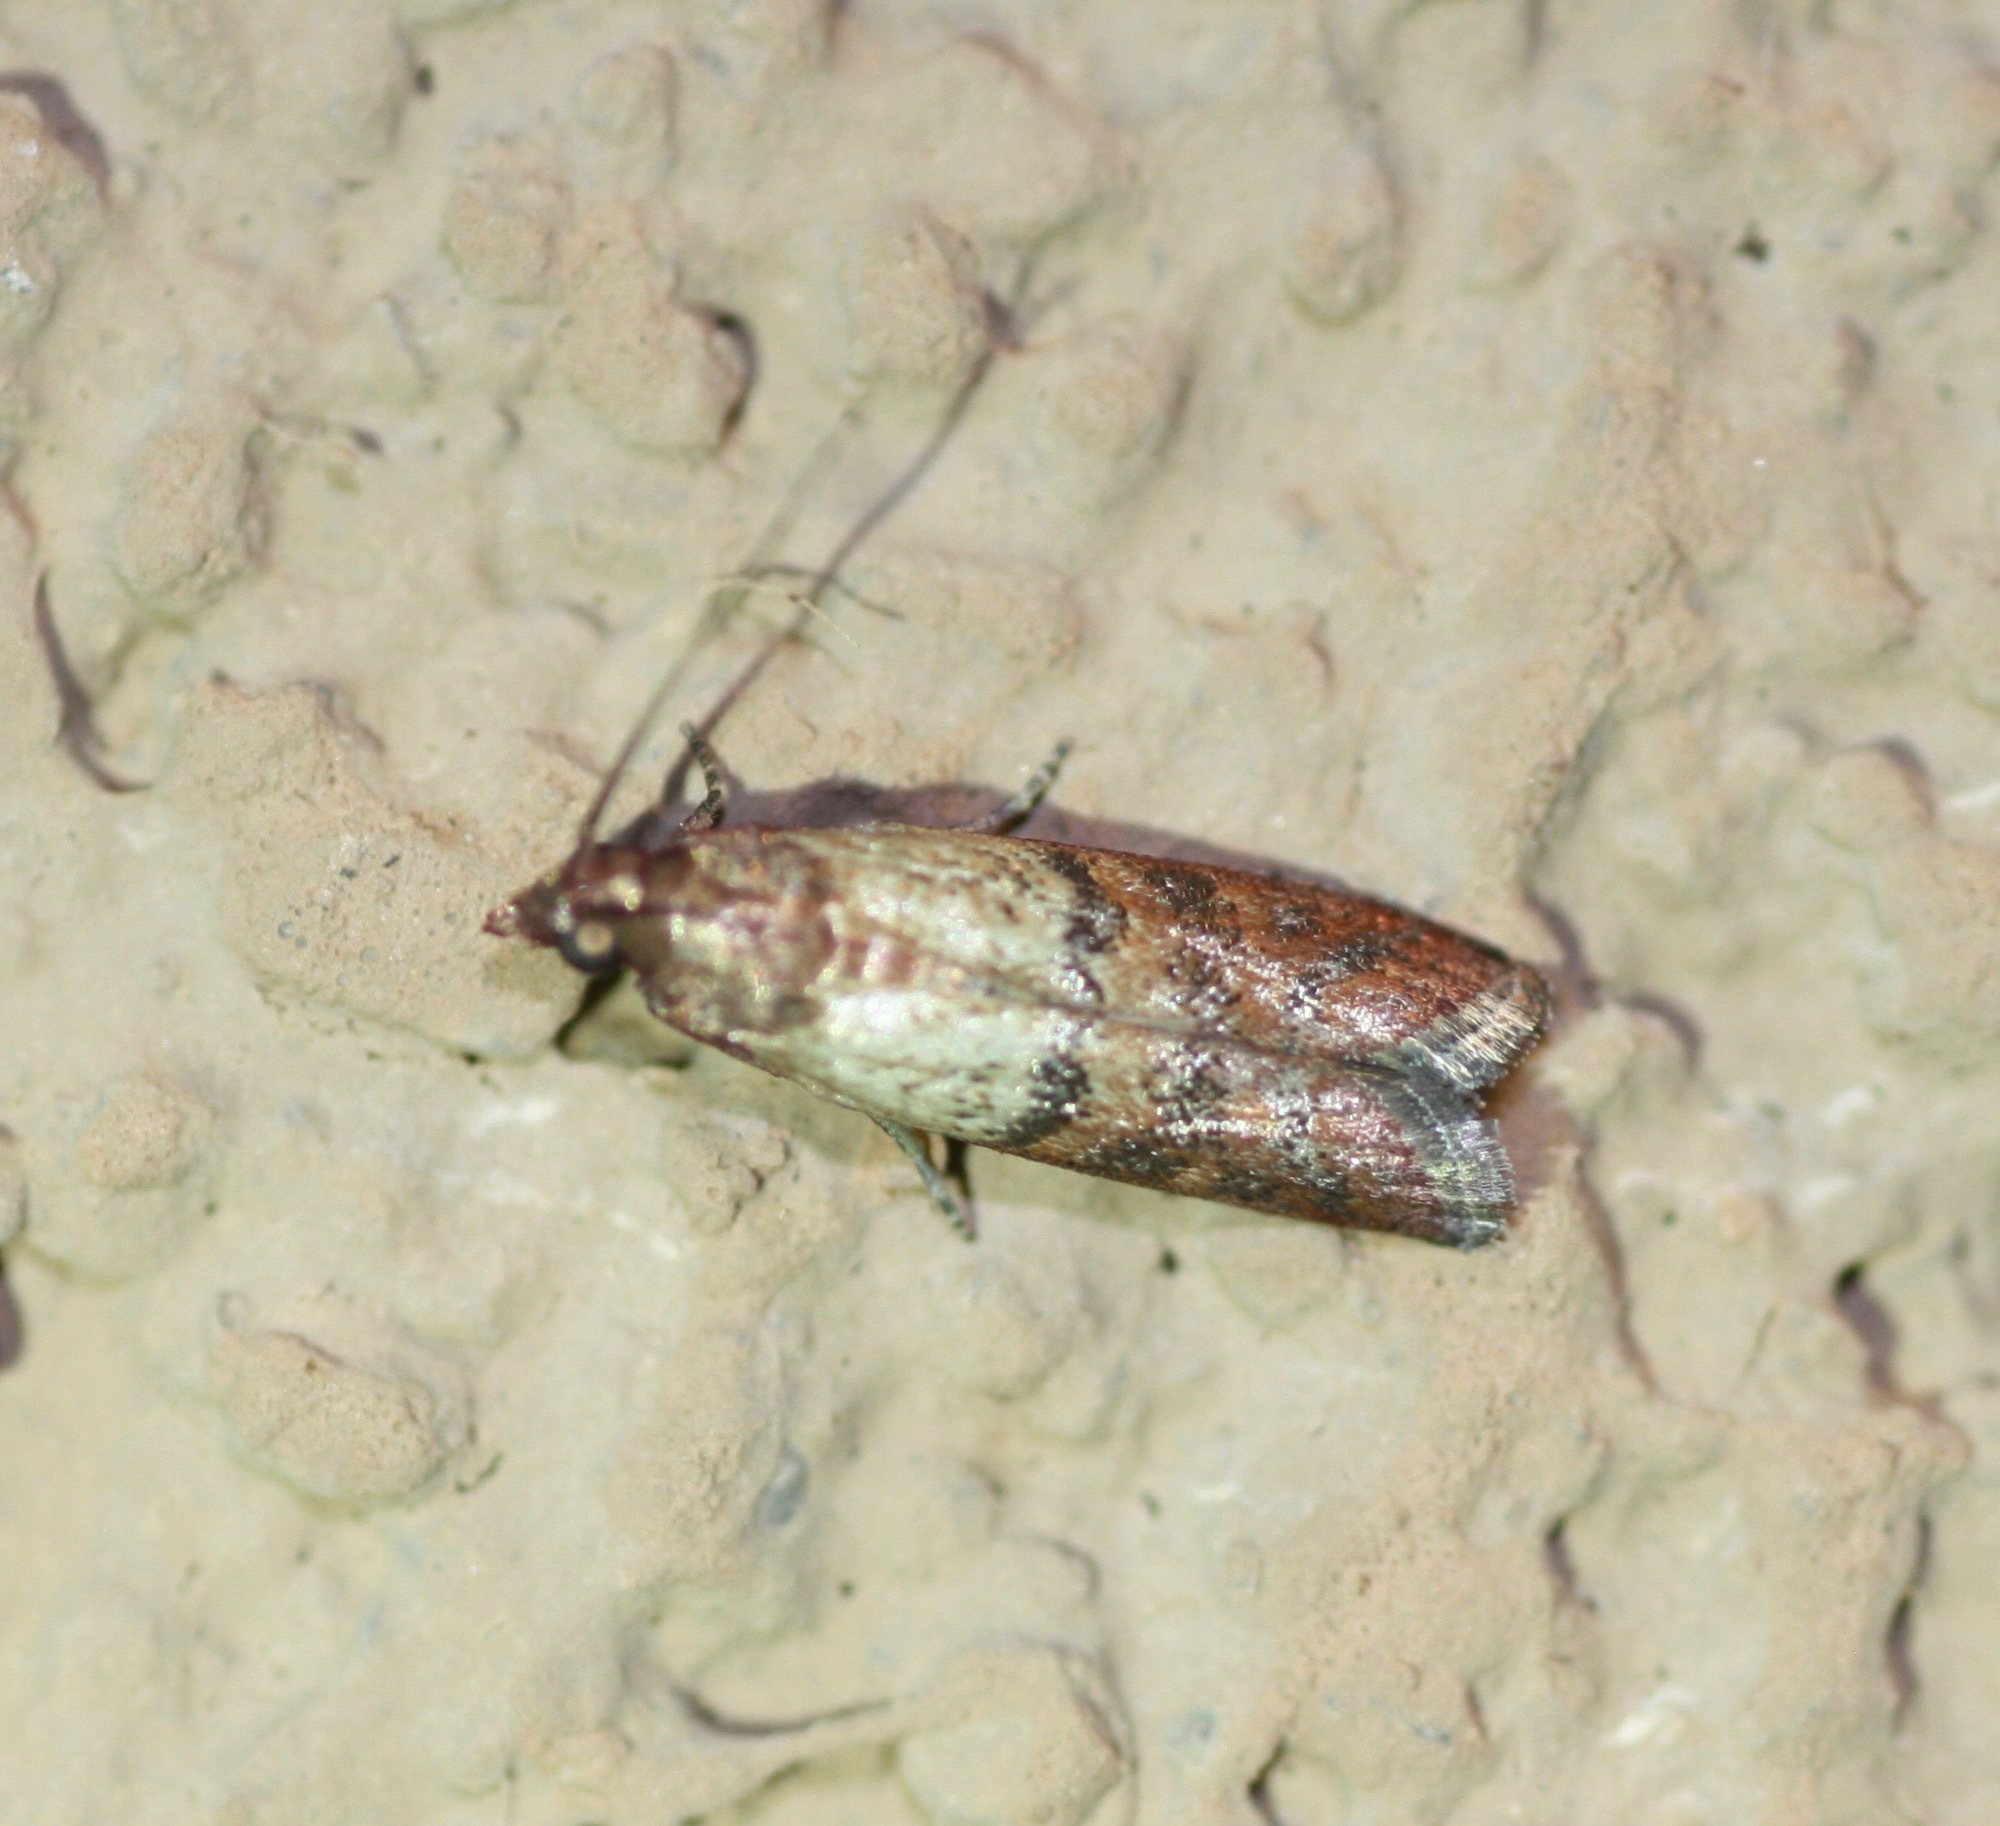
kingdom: Animalia
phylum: Arthropoda
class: Insecta
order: Lepidoptera
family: Pyralidae
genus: Plodia
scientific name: Plodia interpunctella
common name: Indian meal moth
